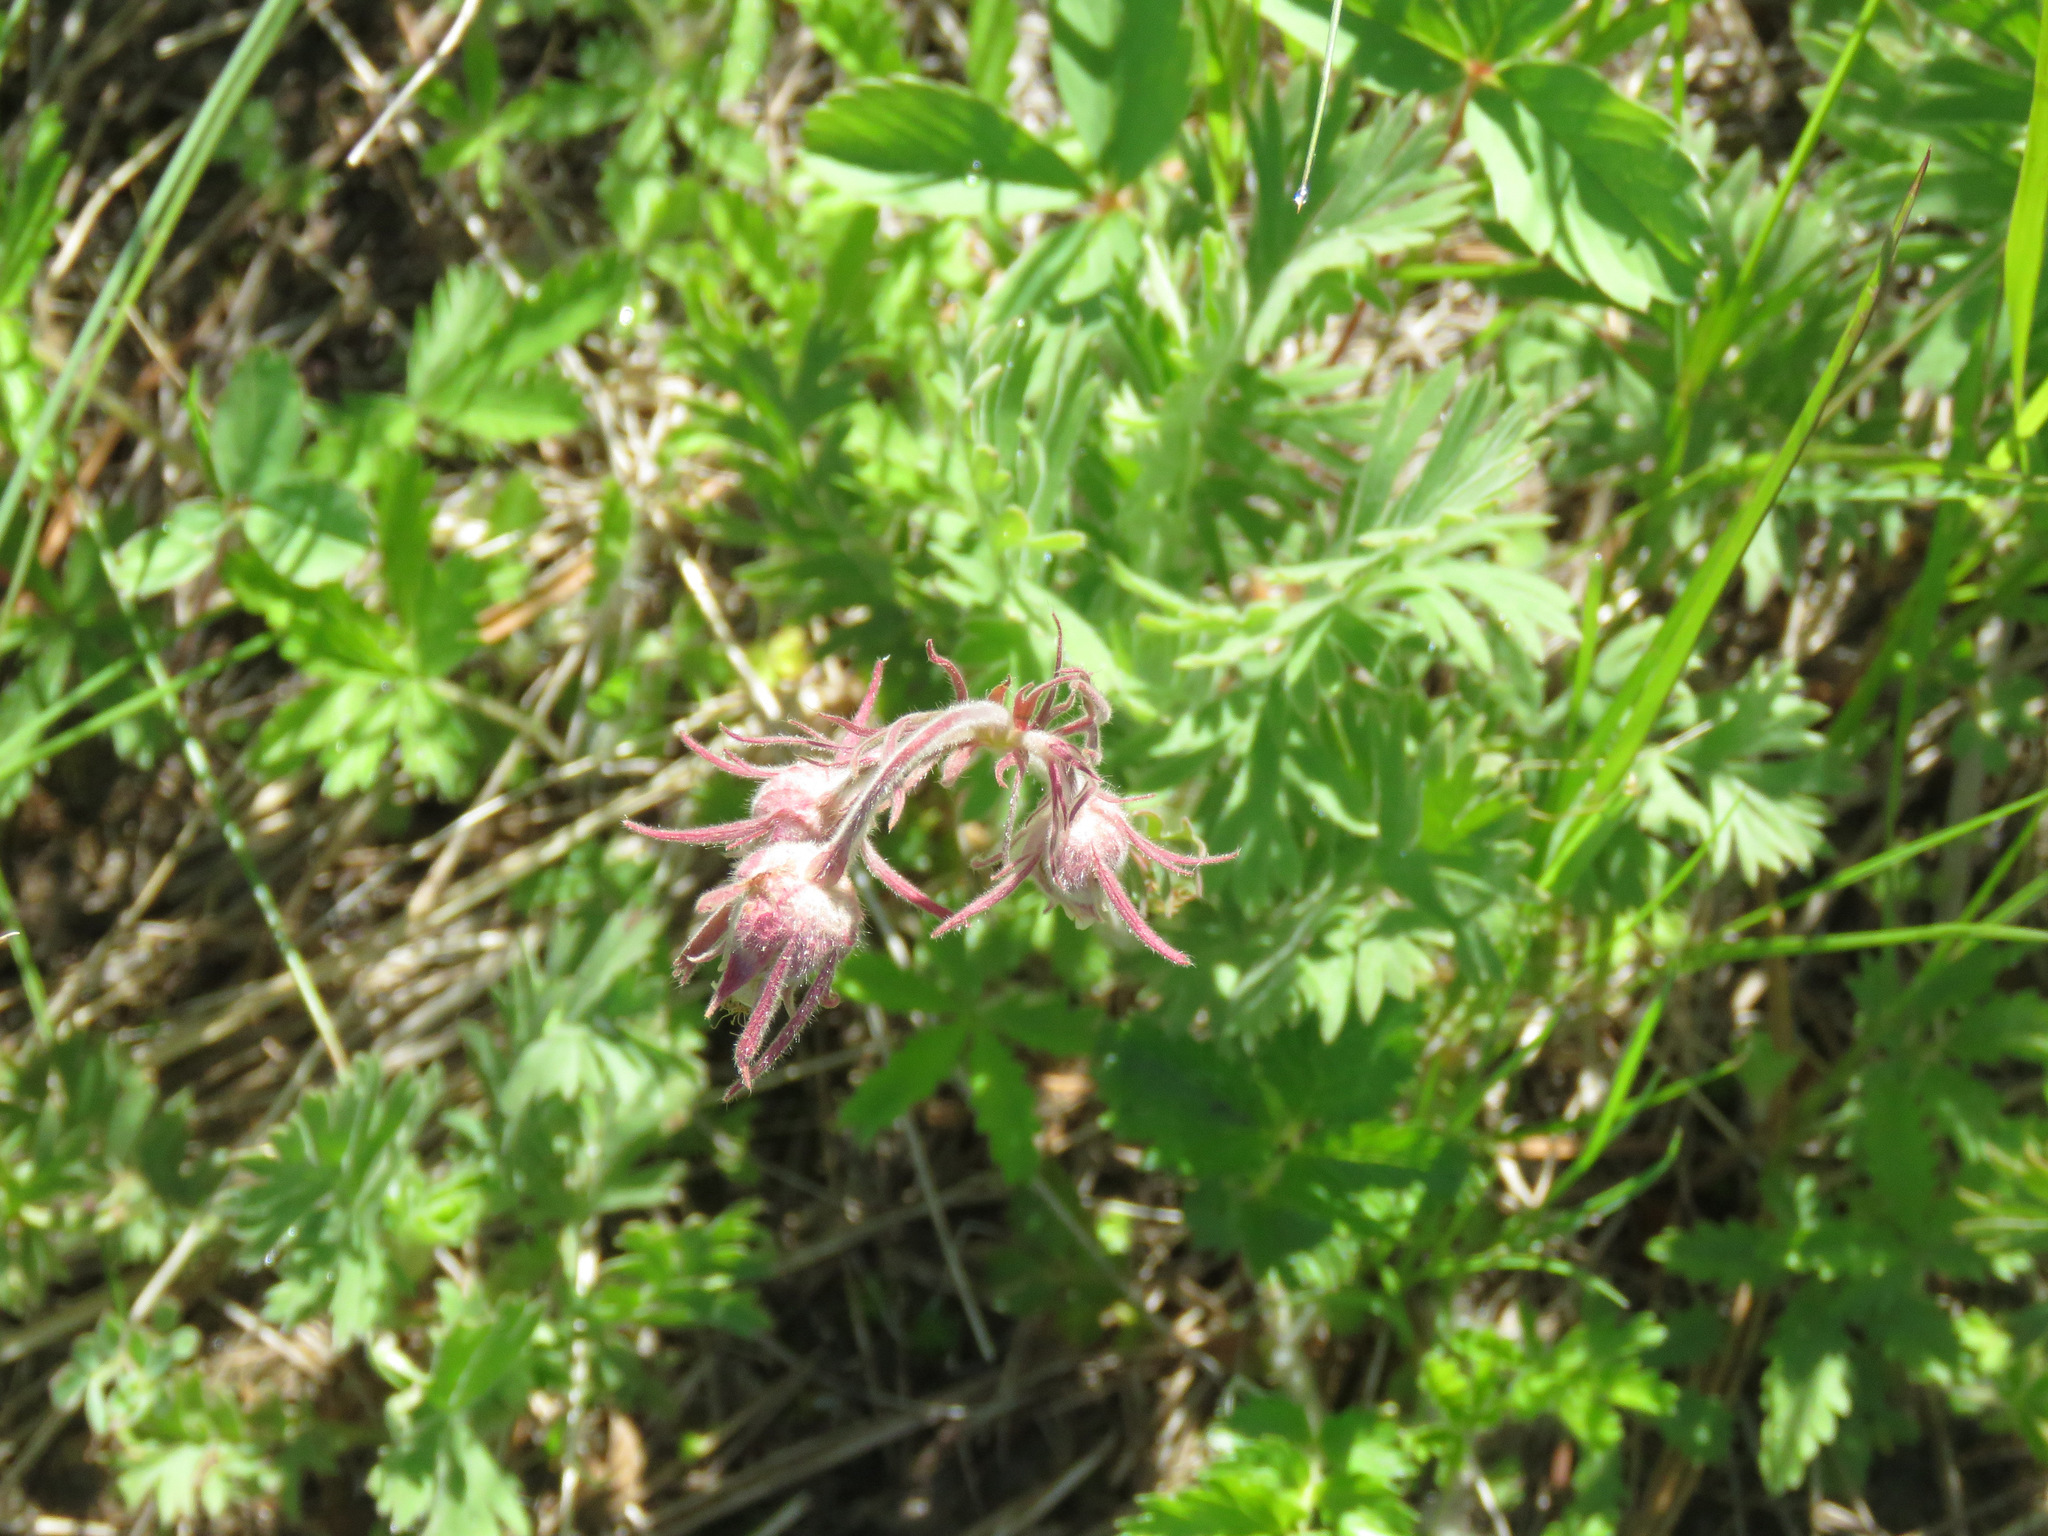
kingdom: Plantae
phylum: Tracheophyta
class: Magnoliopsida
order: Rosales
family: Rosaceae
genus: Geum
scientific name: Geum triflorum
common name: Old man's whiskers
